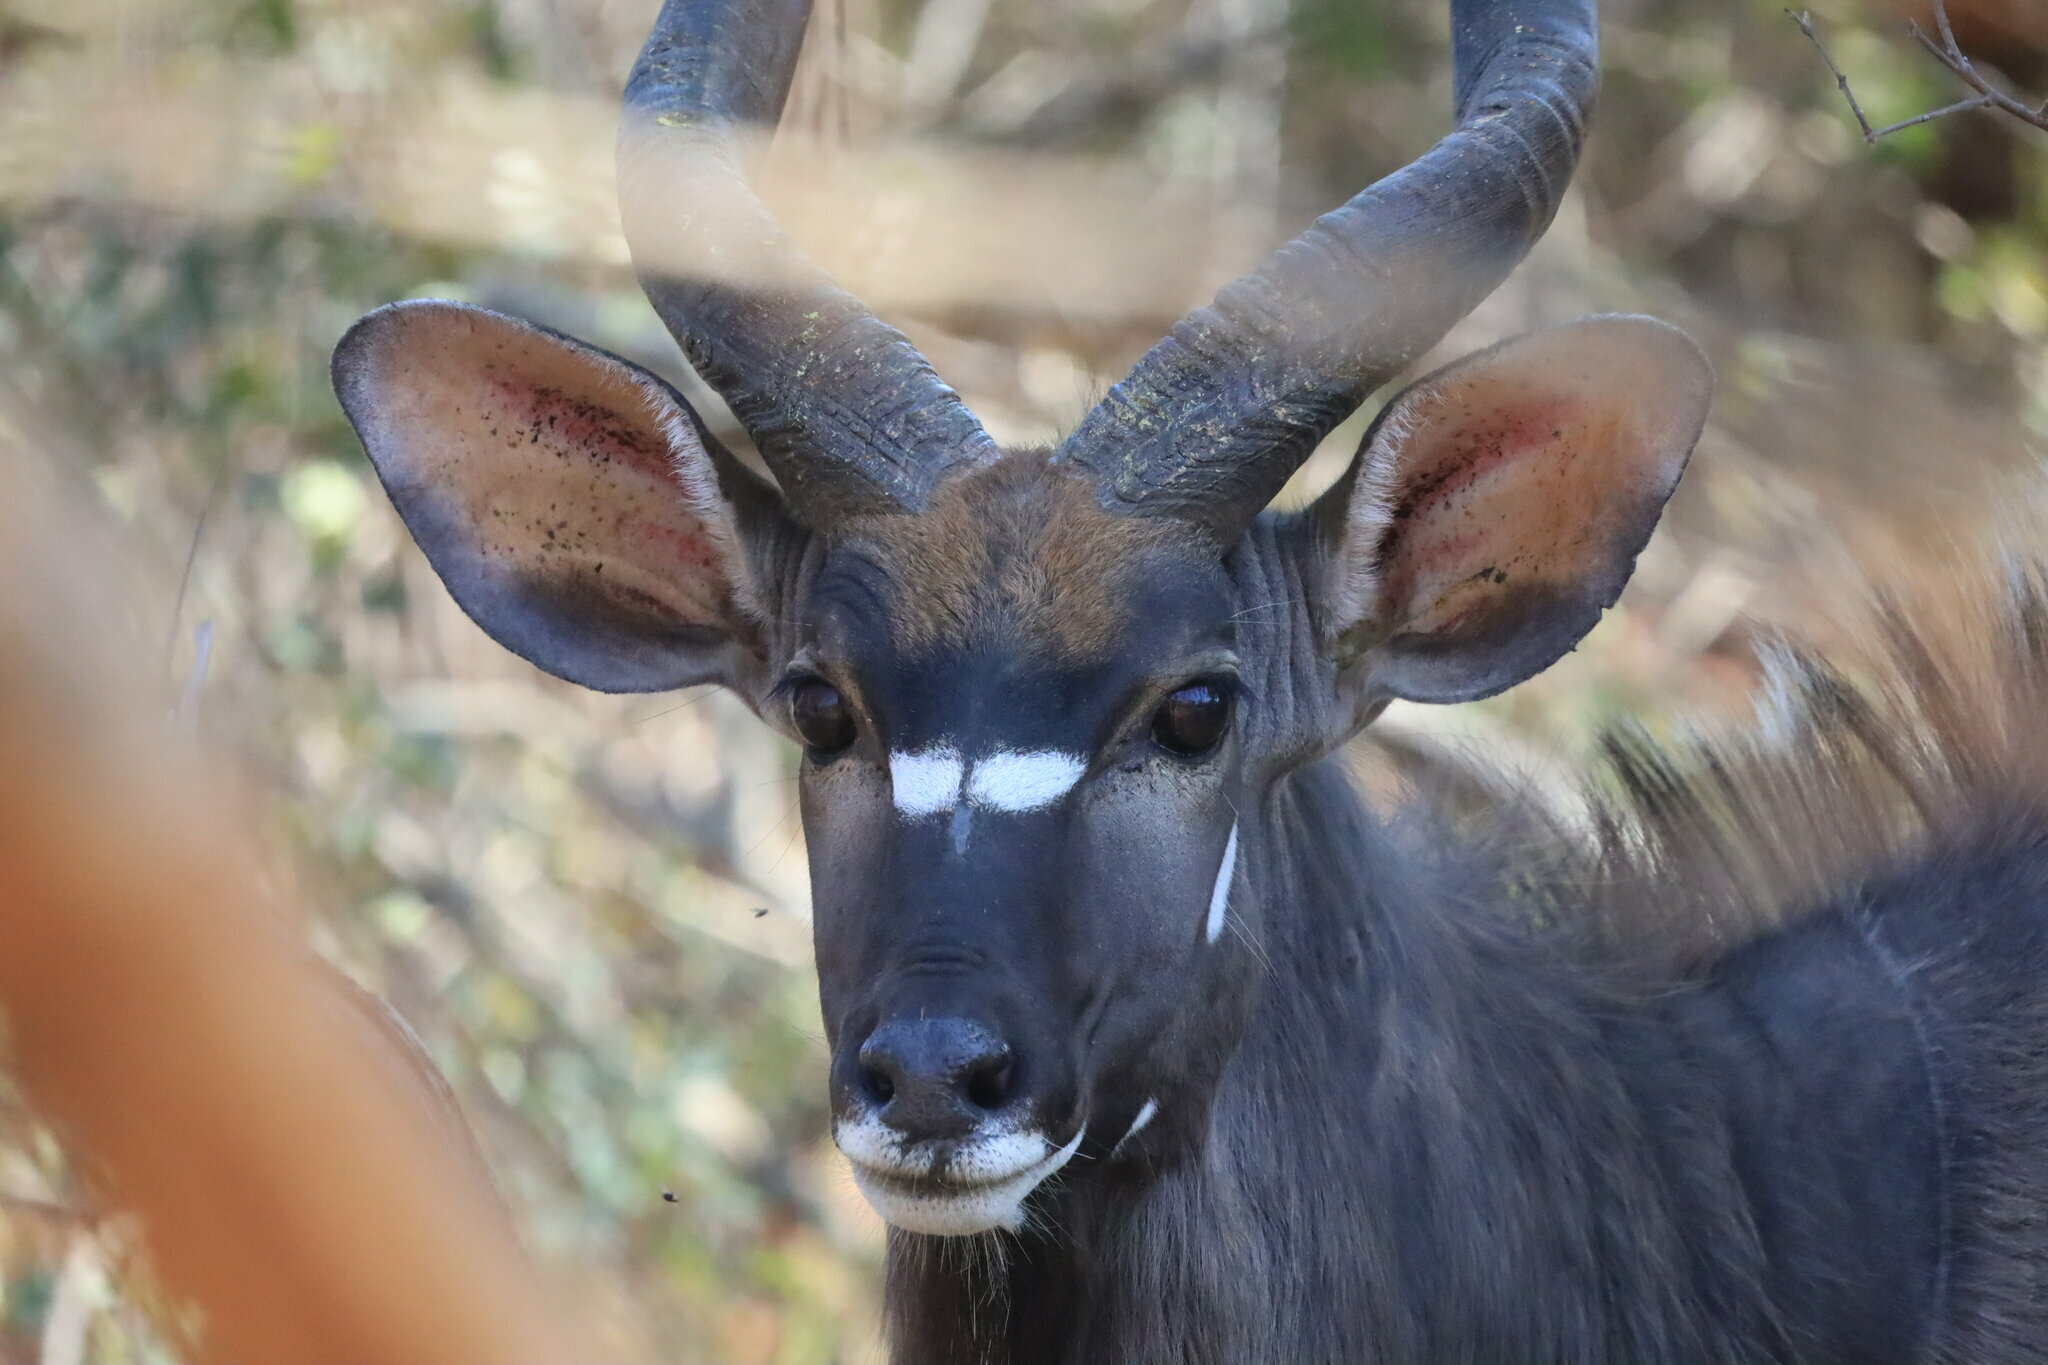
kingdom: Animalia
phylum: Chordata
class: Mammalia
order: Artiodactyla
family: Bovidae
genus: Tragelaphus
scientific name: Tragelaphus angasii
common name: Nyala
